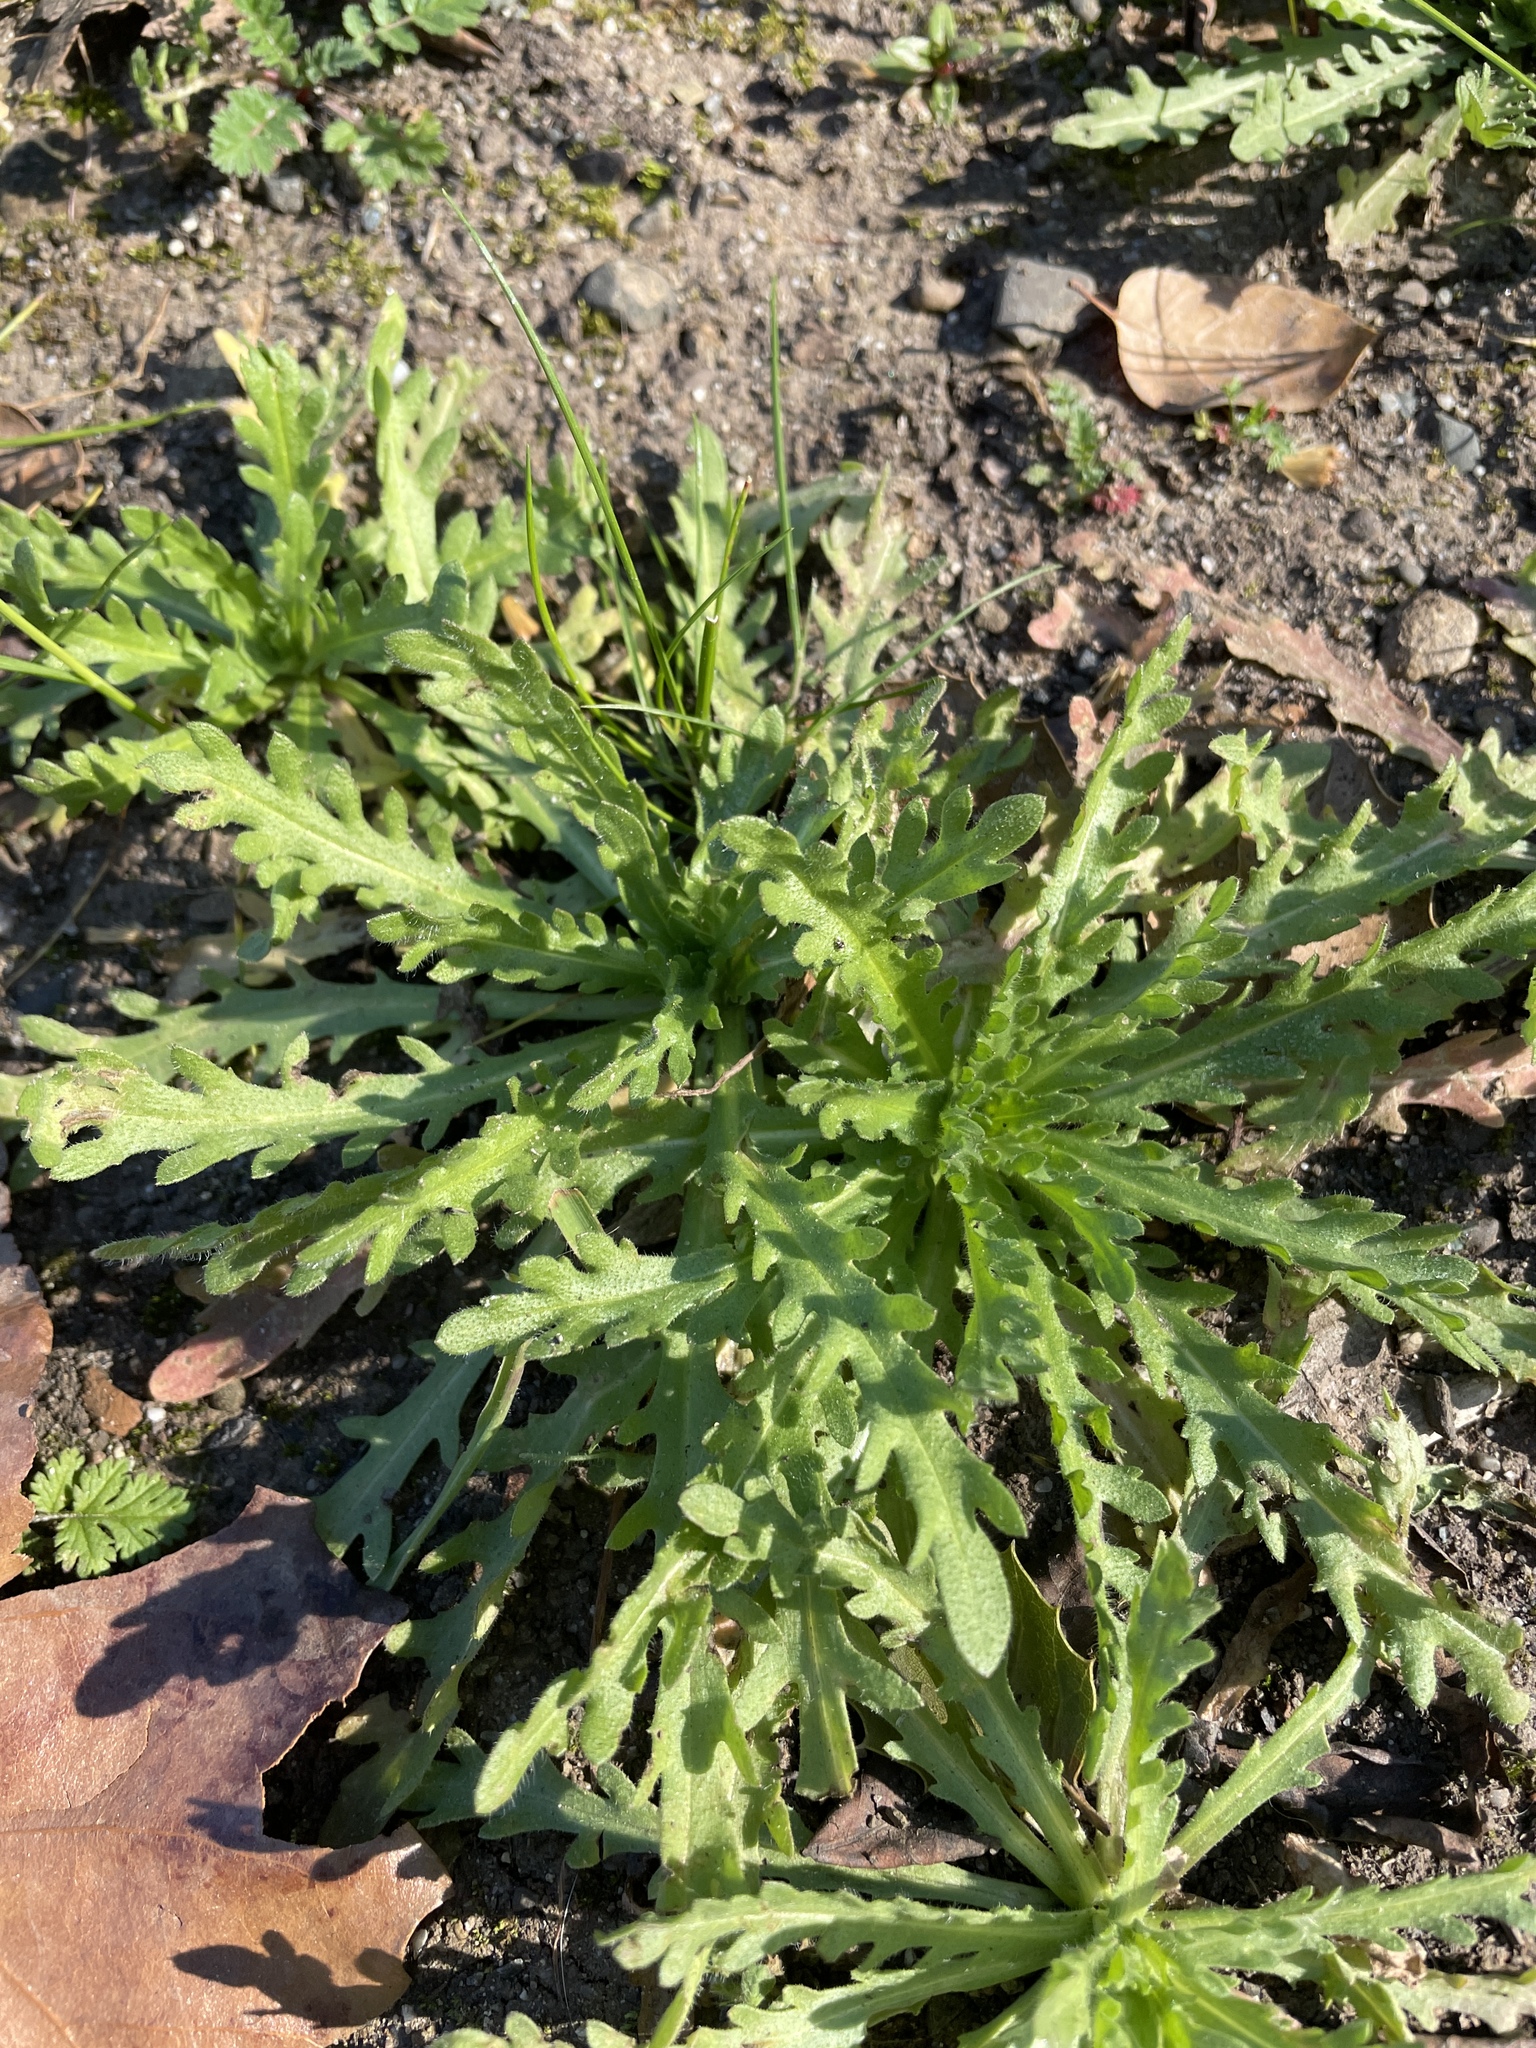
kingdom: Plantae
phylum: Tracheophyta
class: Magnoliopsida
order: Asterales
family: Asteraceae
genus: Layia
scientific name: Layia platyglossa
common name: Tidy-tips
